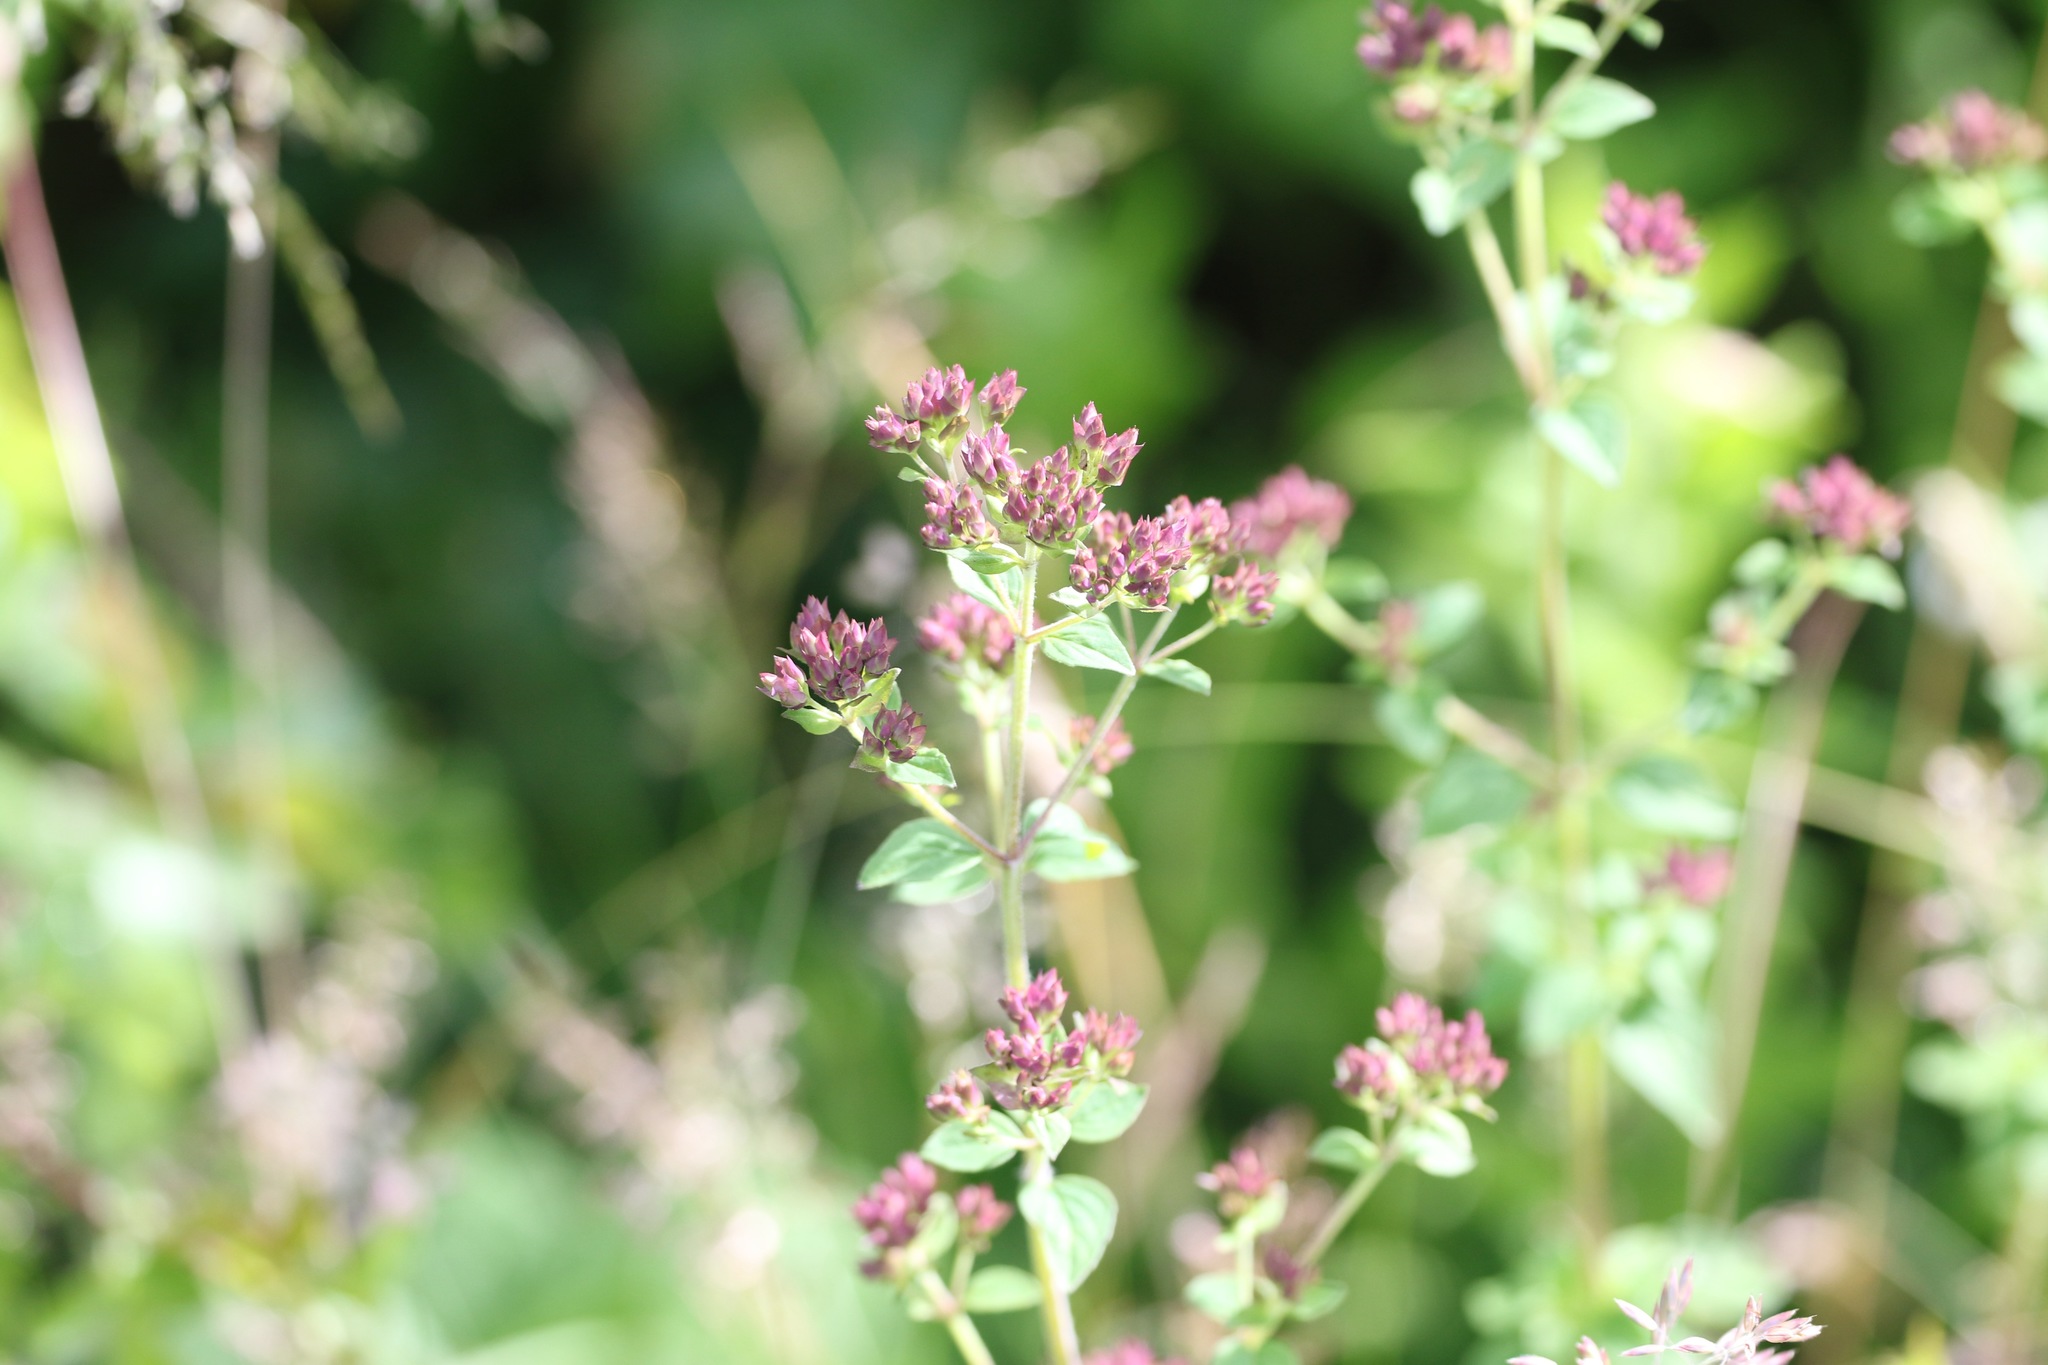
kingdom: Plantae
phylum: Tracheophyta
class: Magnoliopsida
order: Lamiales
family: Lamiaceae
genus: Origanum
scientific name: Origanum vulgare
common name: Wild marjoram
